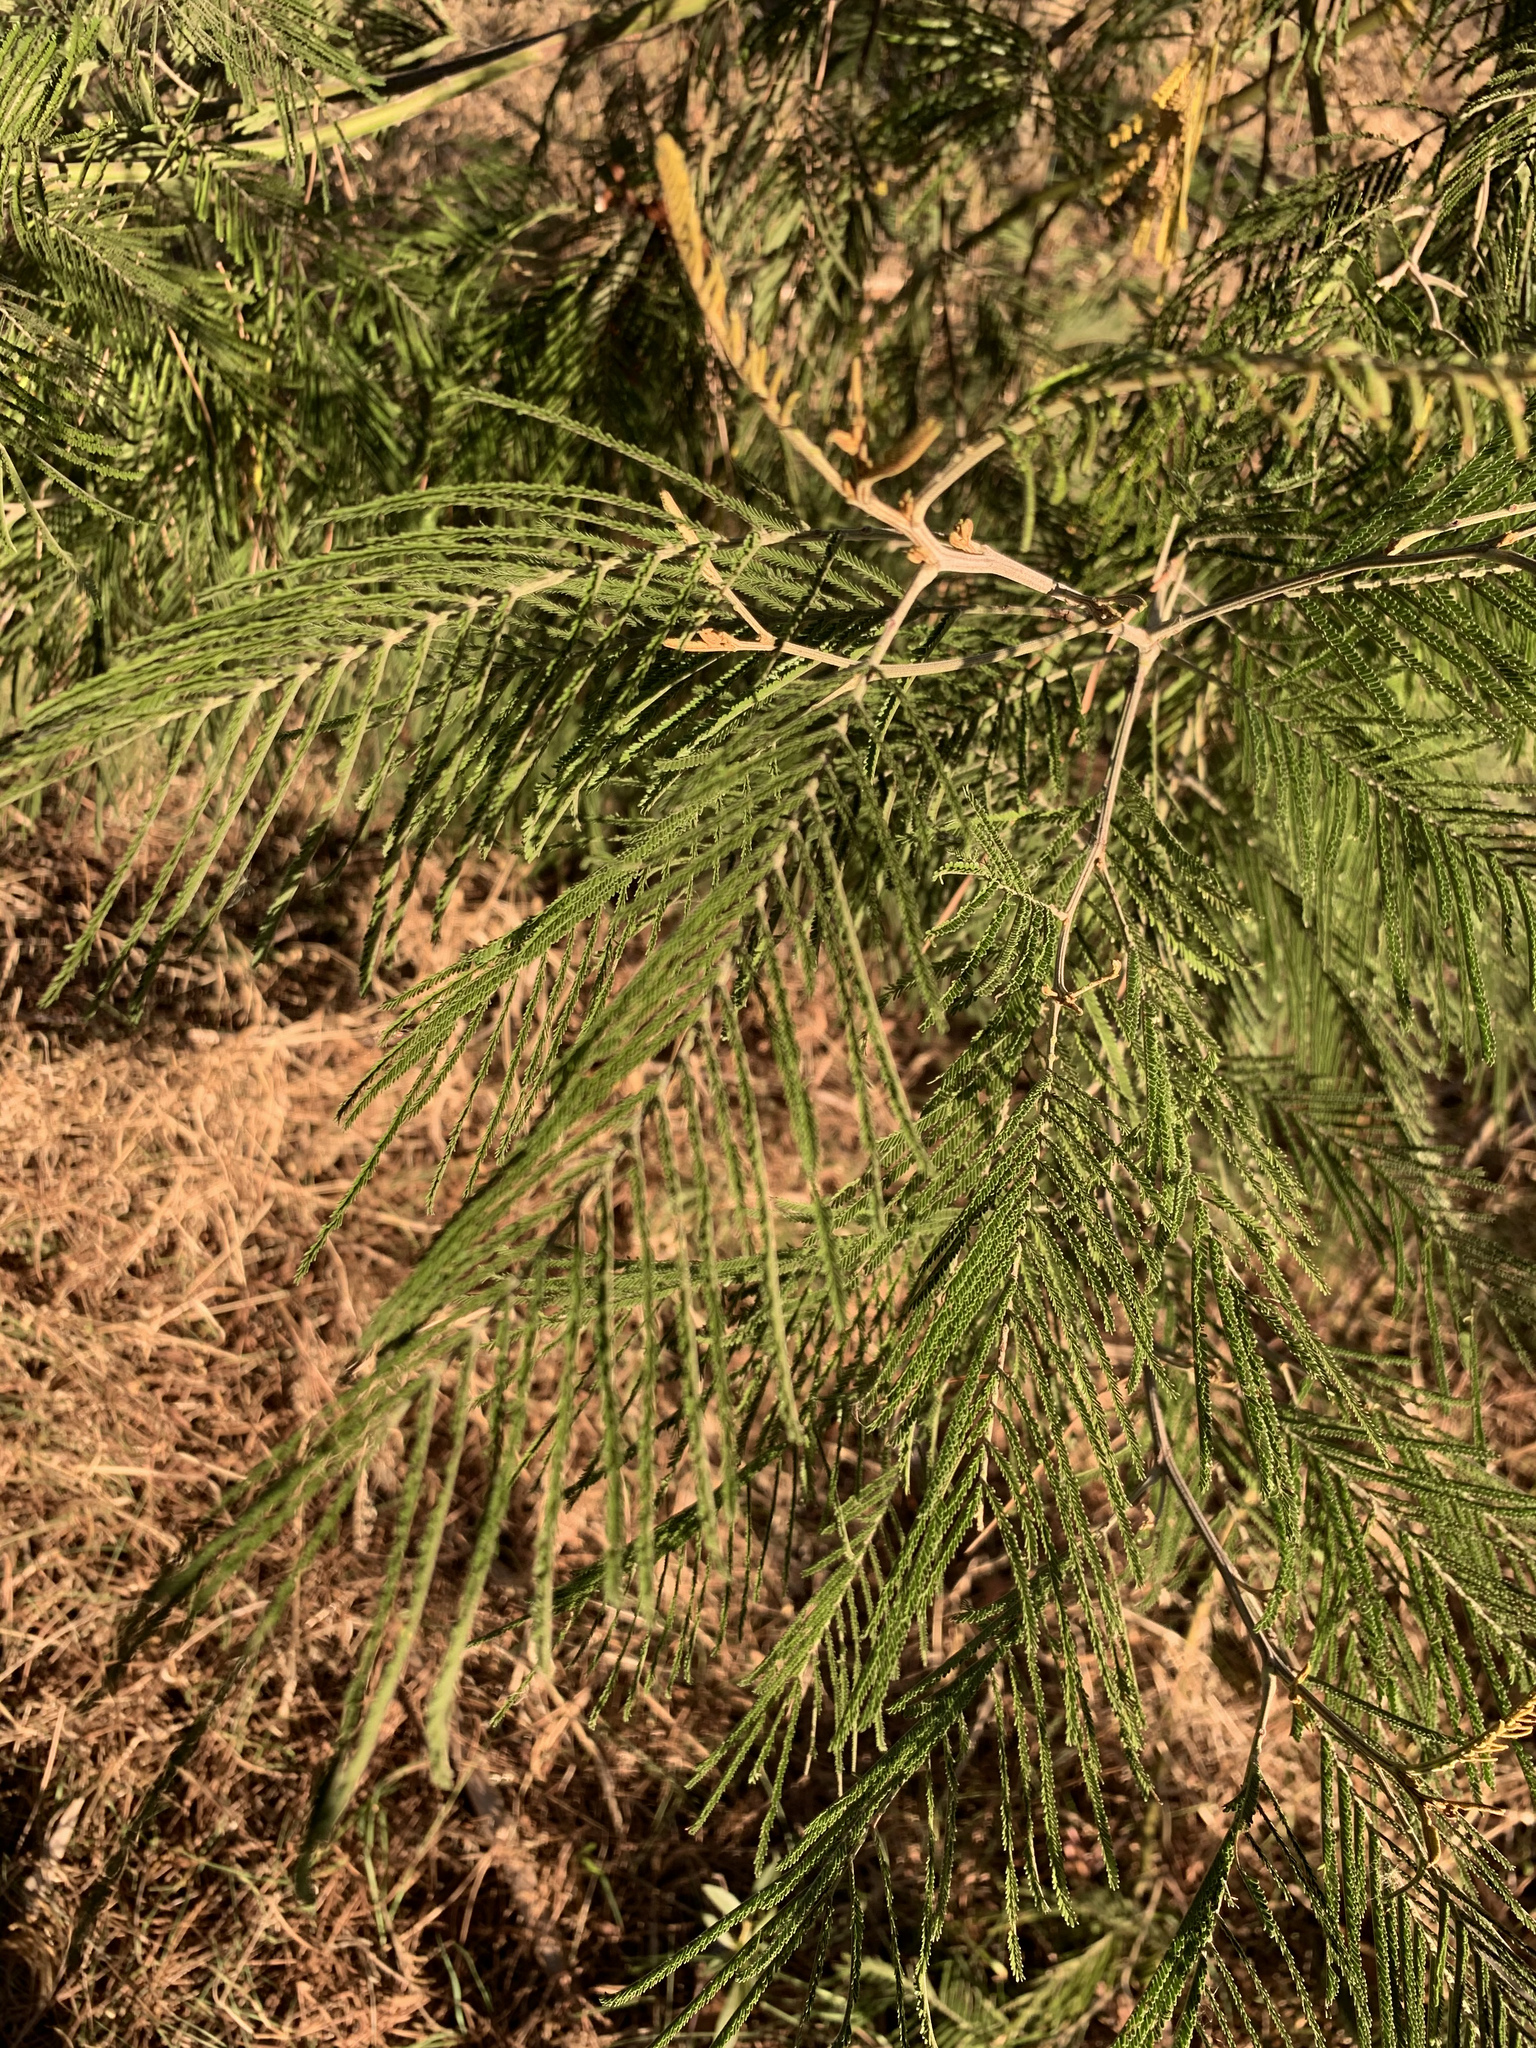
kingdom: Plantae
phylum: Tracheophyta
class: Magnoliopsida
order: Fabales
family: Fabaceae
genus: Acacia
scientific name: Acacia mearnsii
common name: Black wattle
